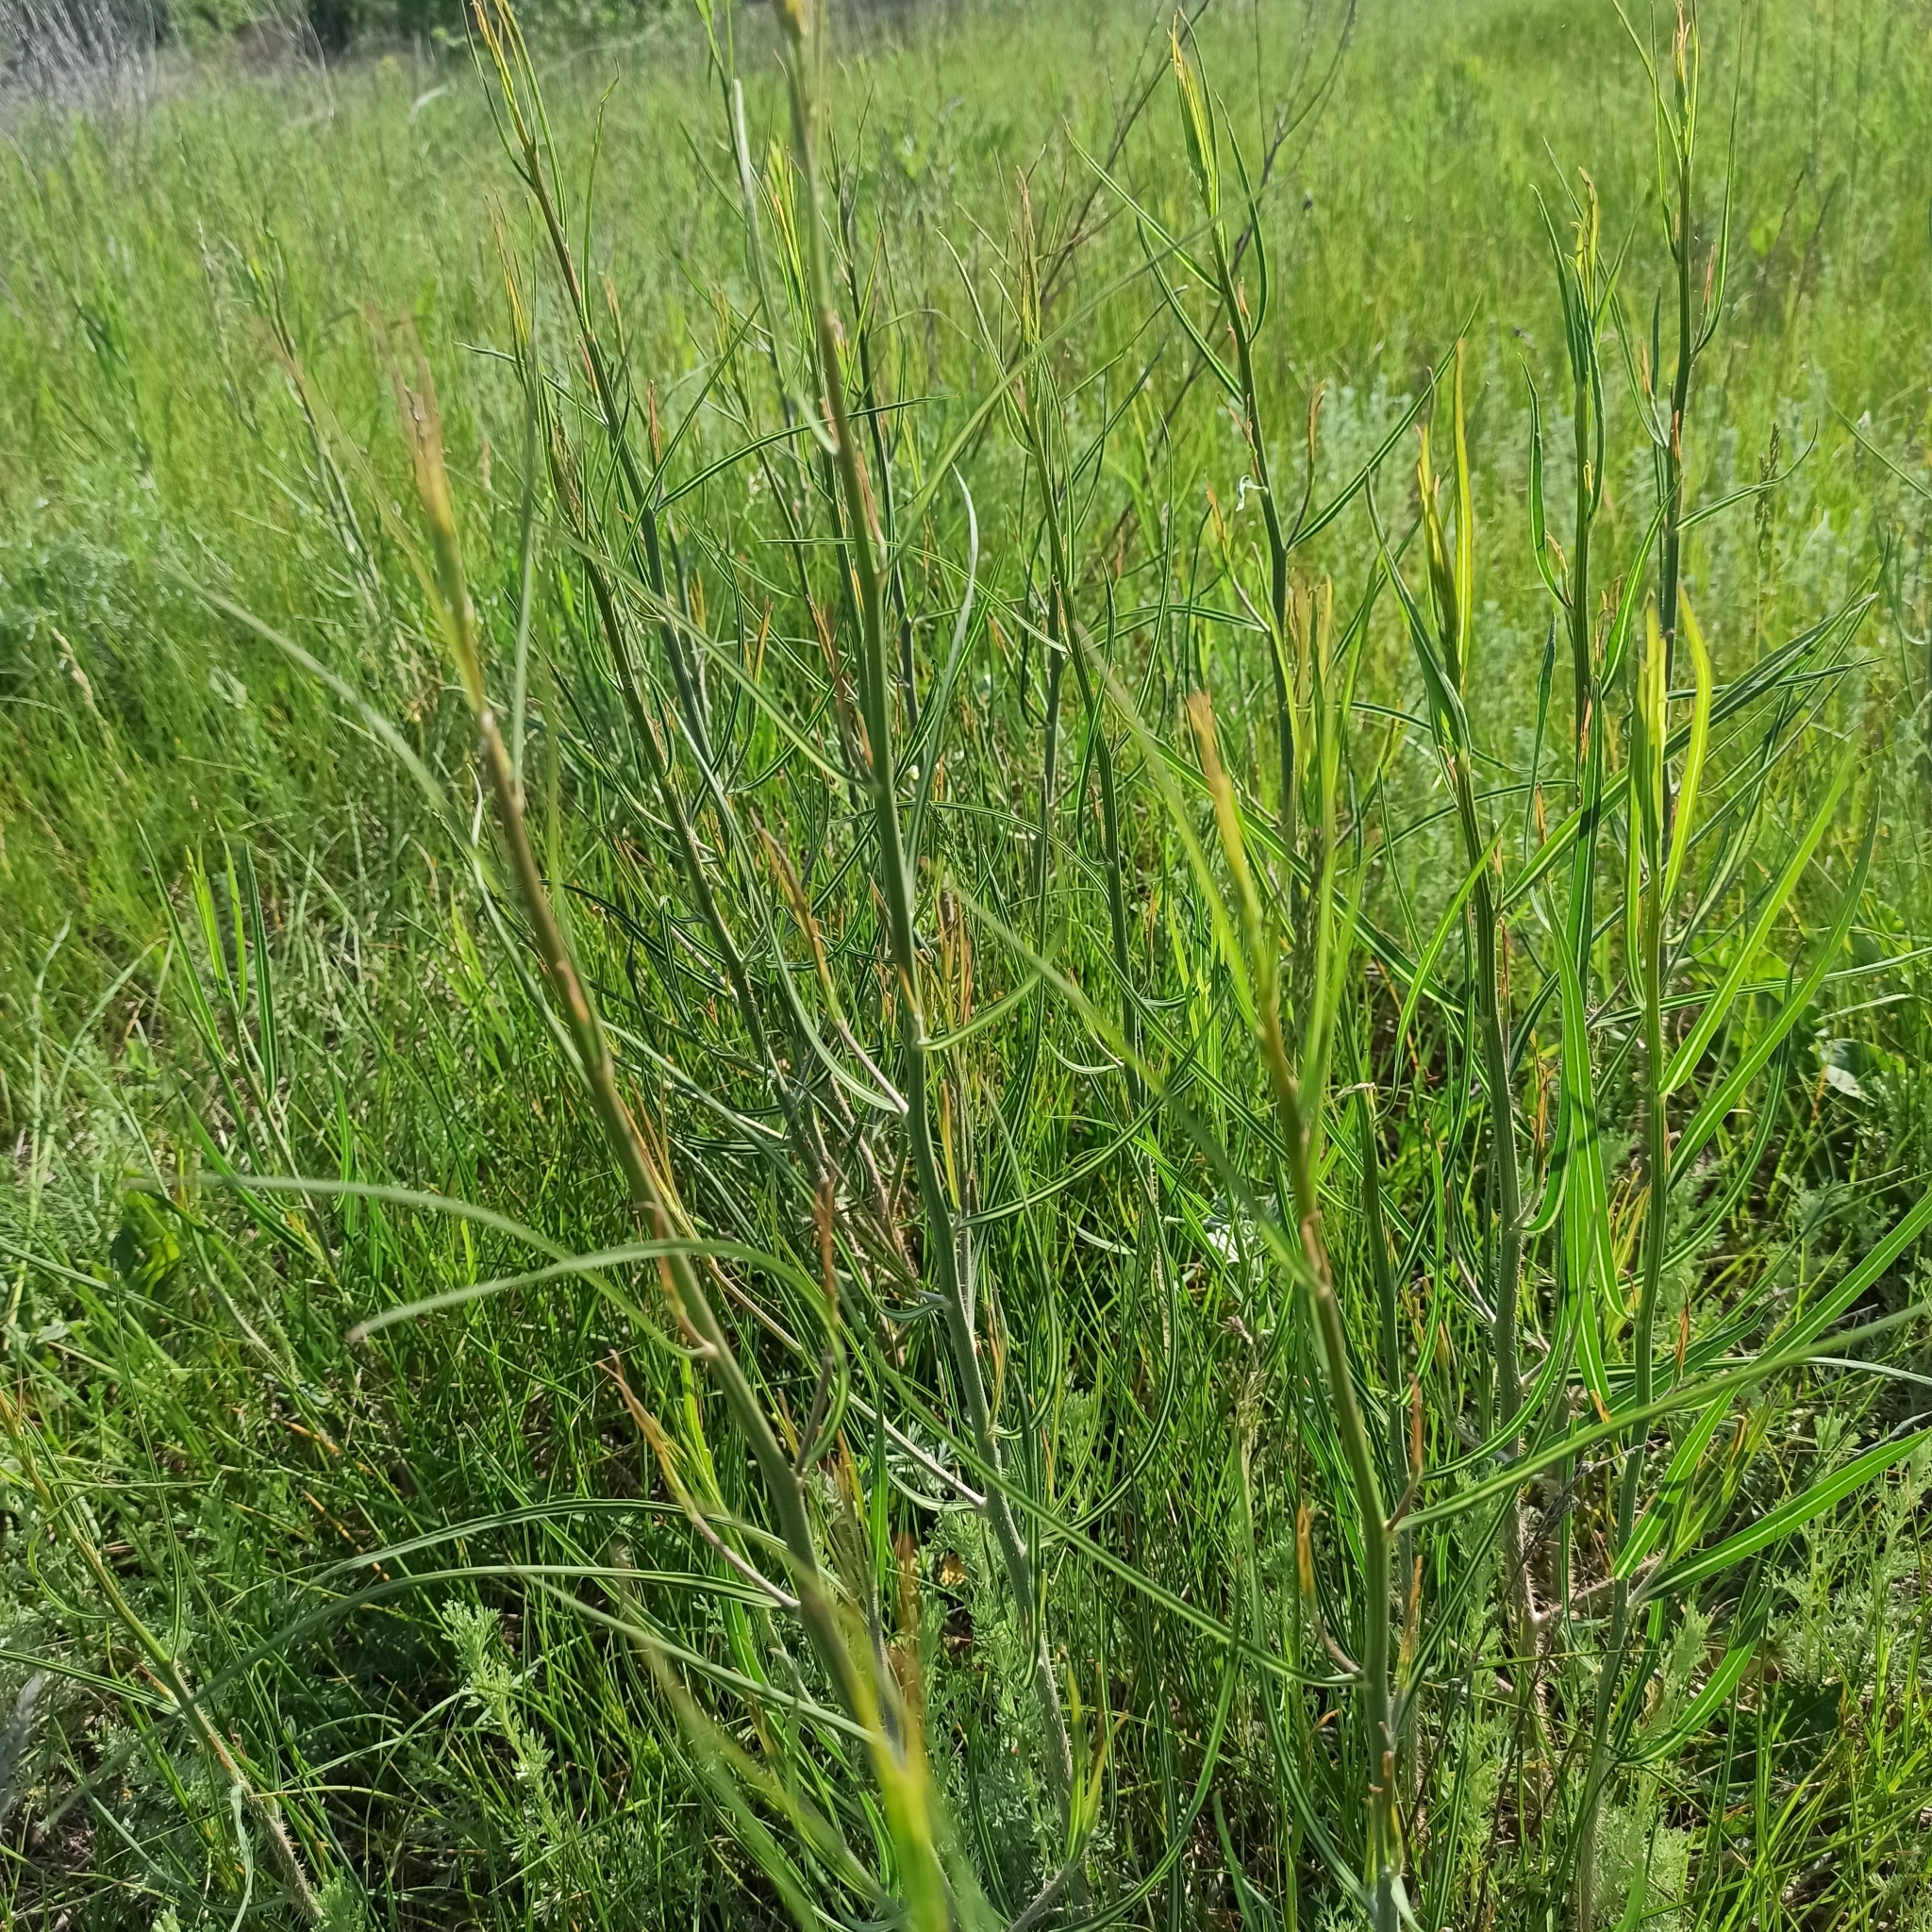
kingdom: Plantae
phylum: Tracheophyta
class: Magnoliopsida
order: Asterales
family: Asteraceae
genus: Chondrilla
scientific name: Chondrilla juncea
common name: Skeleton weed
